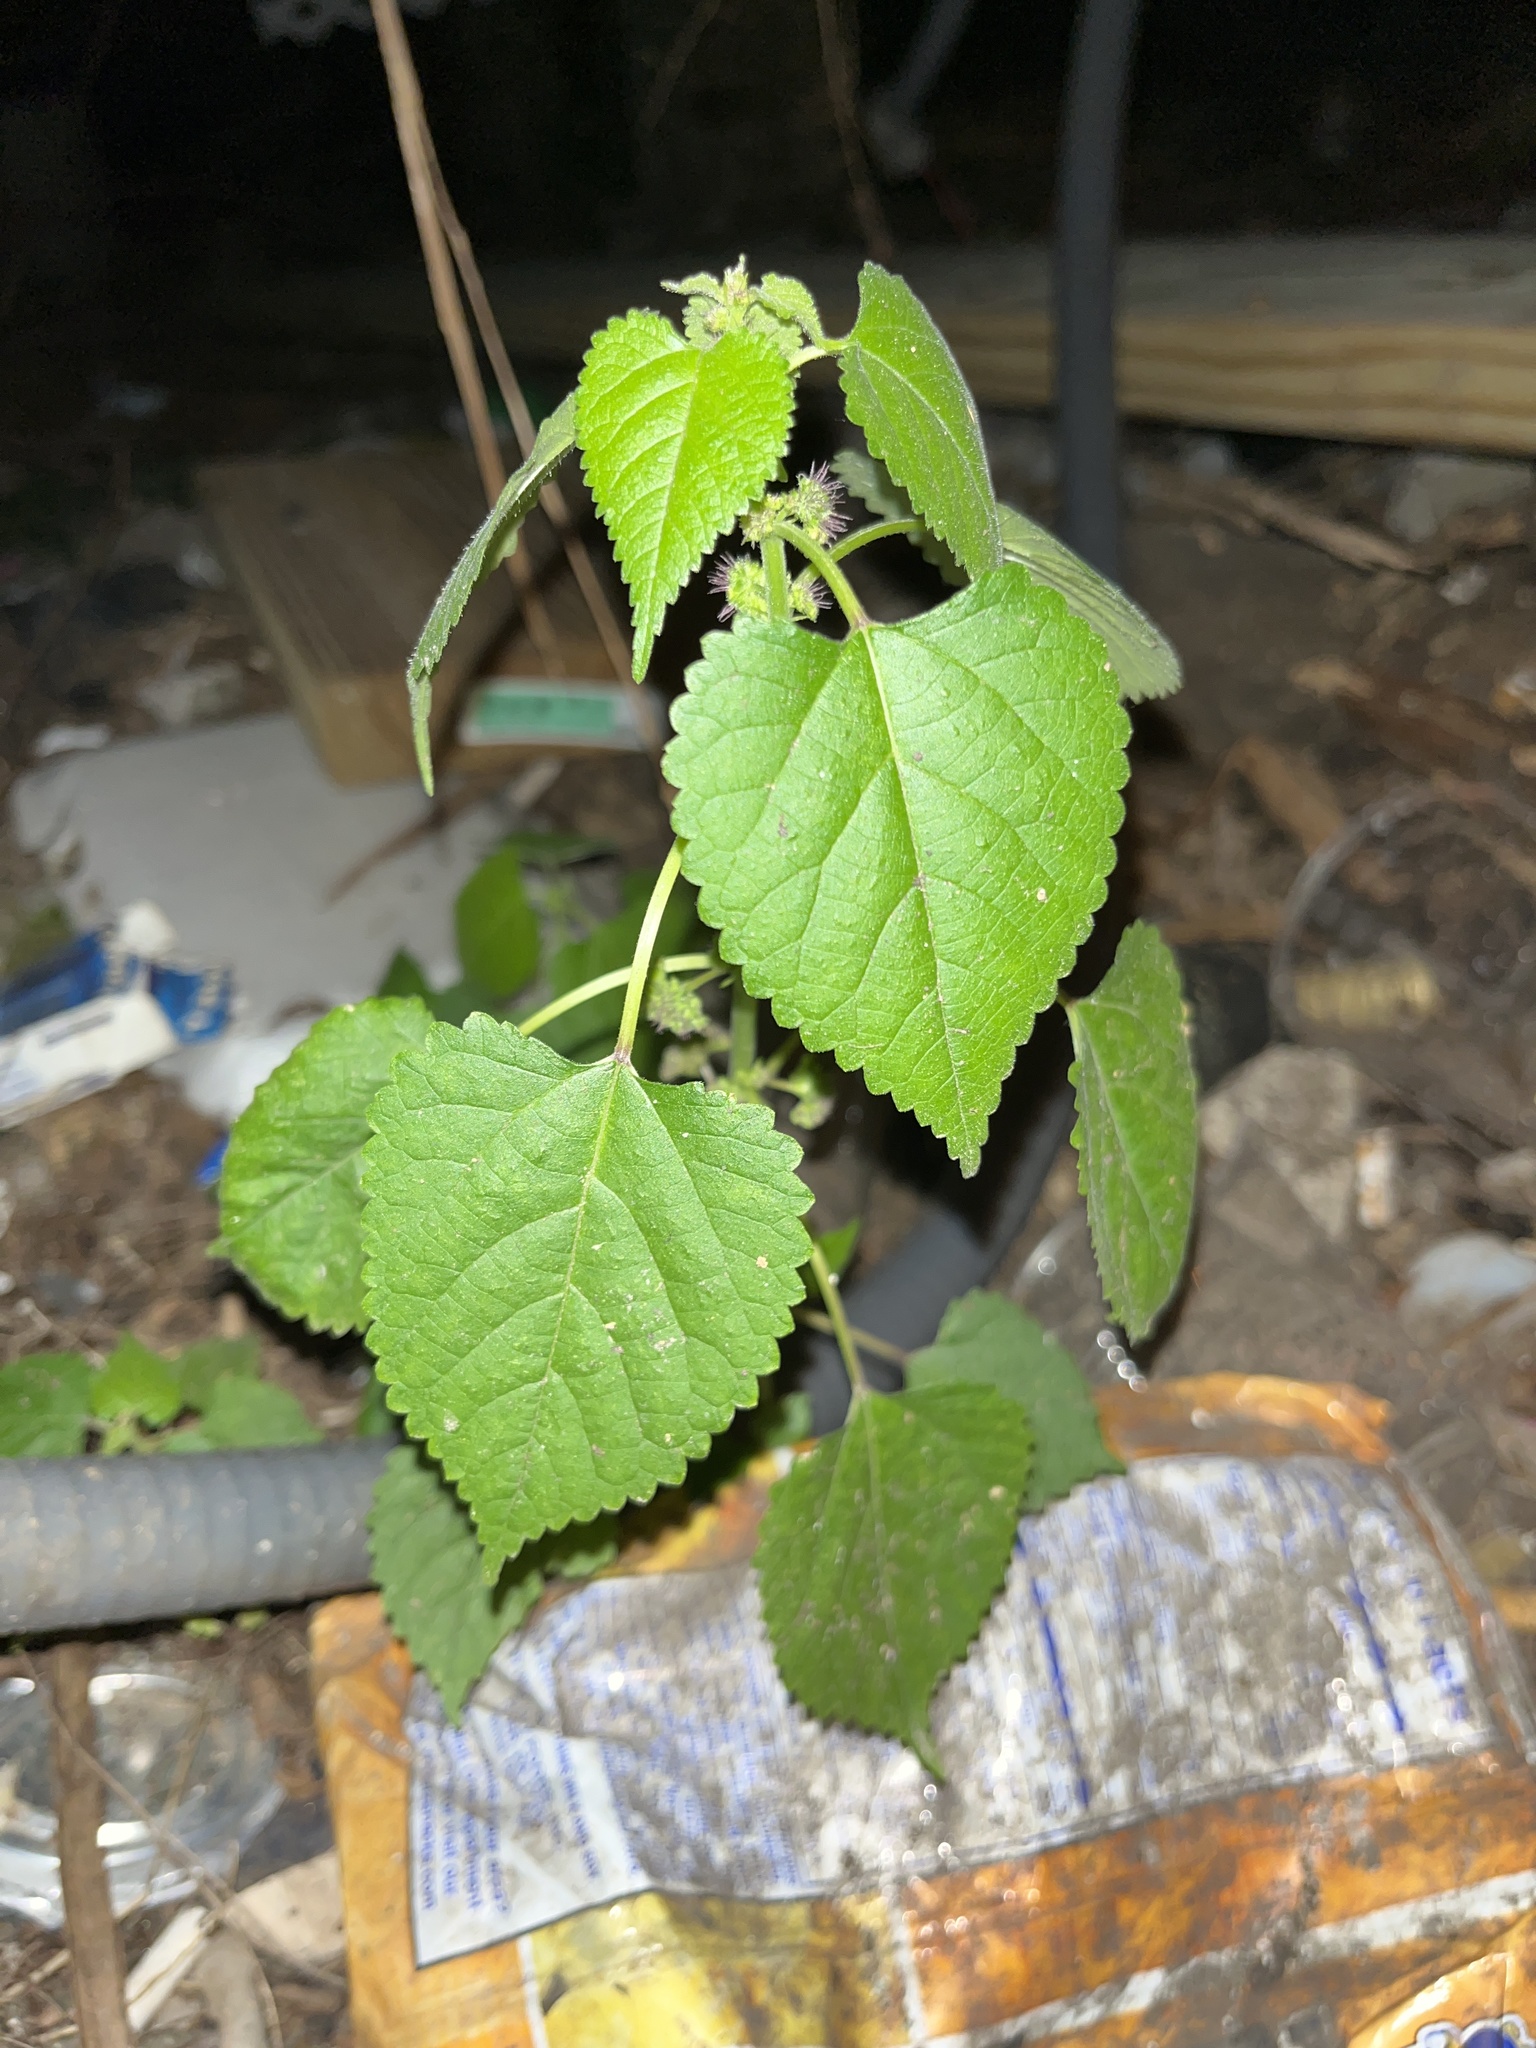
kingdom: Plantae
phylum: Tracheophyta
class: Magnoliopsida
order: Rosales
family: Moraceae
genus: Fatoua
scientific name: Fatoua villosa
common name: Hairy crabweed
